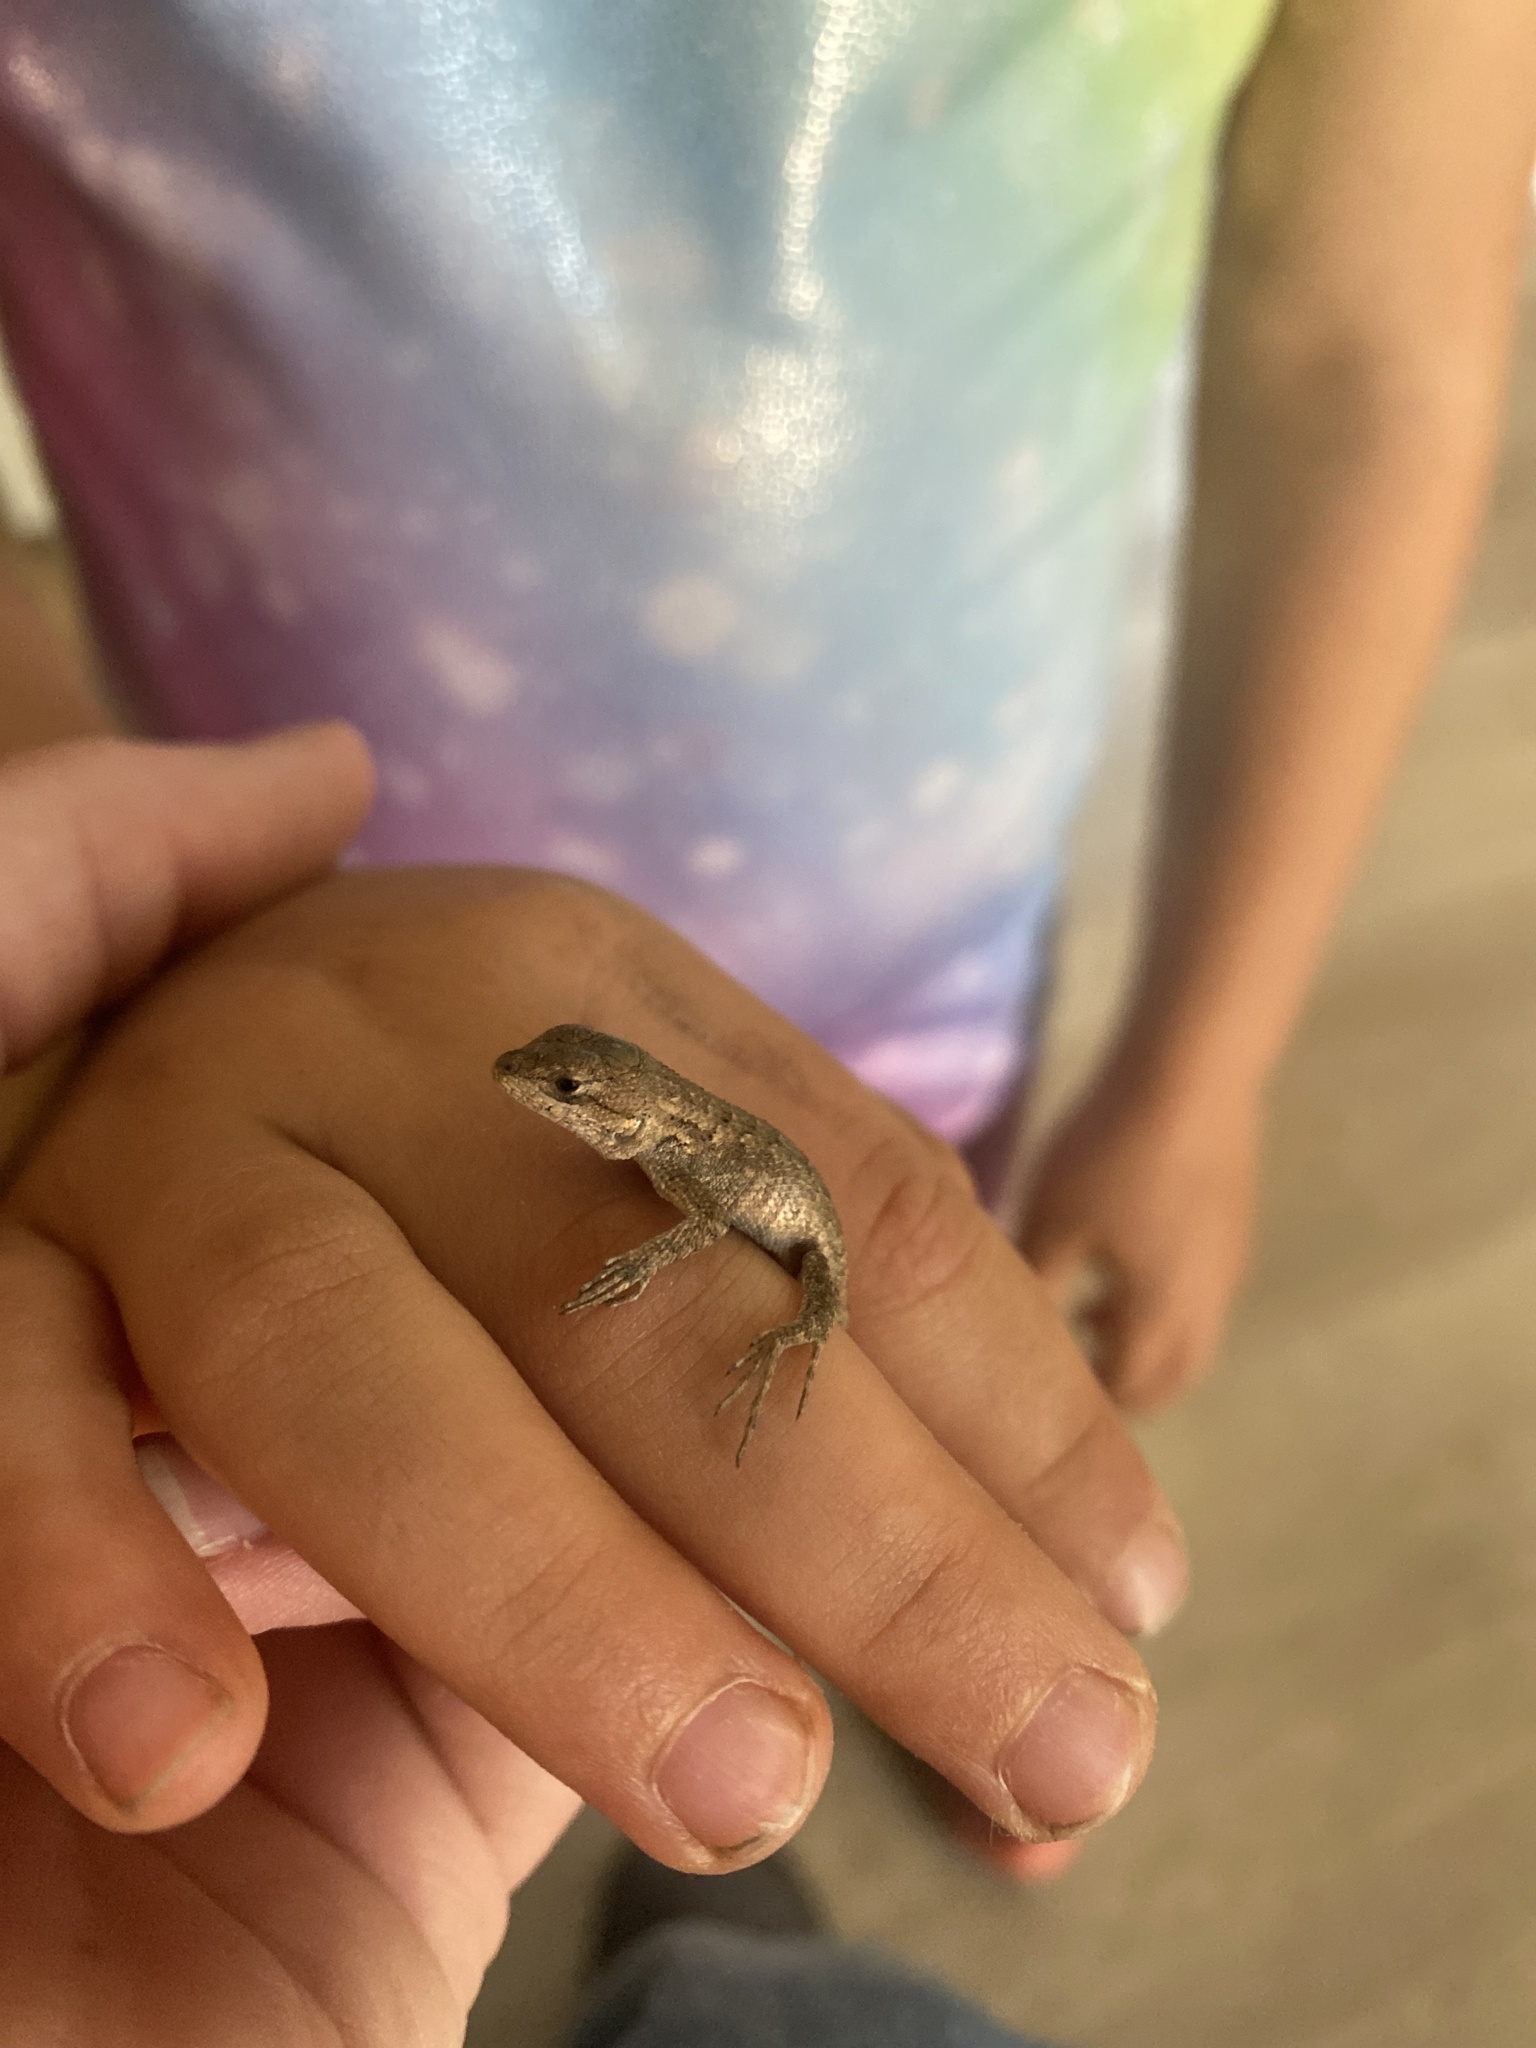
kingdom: Animalia
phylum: Chordata
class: Squamata
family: Phrynosomatidae
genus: Sceloporus
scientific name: Sceloporus occidentalis
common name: Western fence lizard
